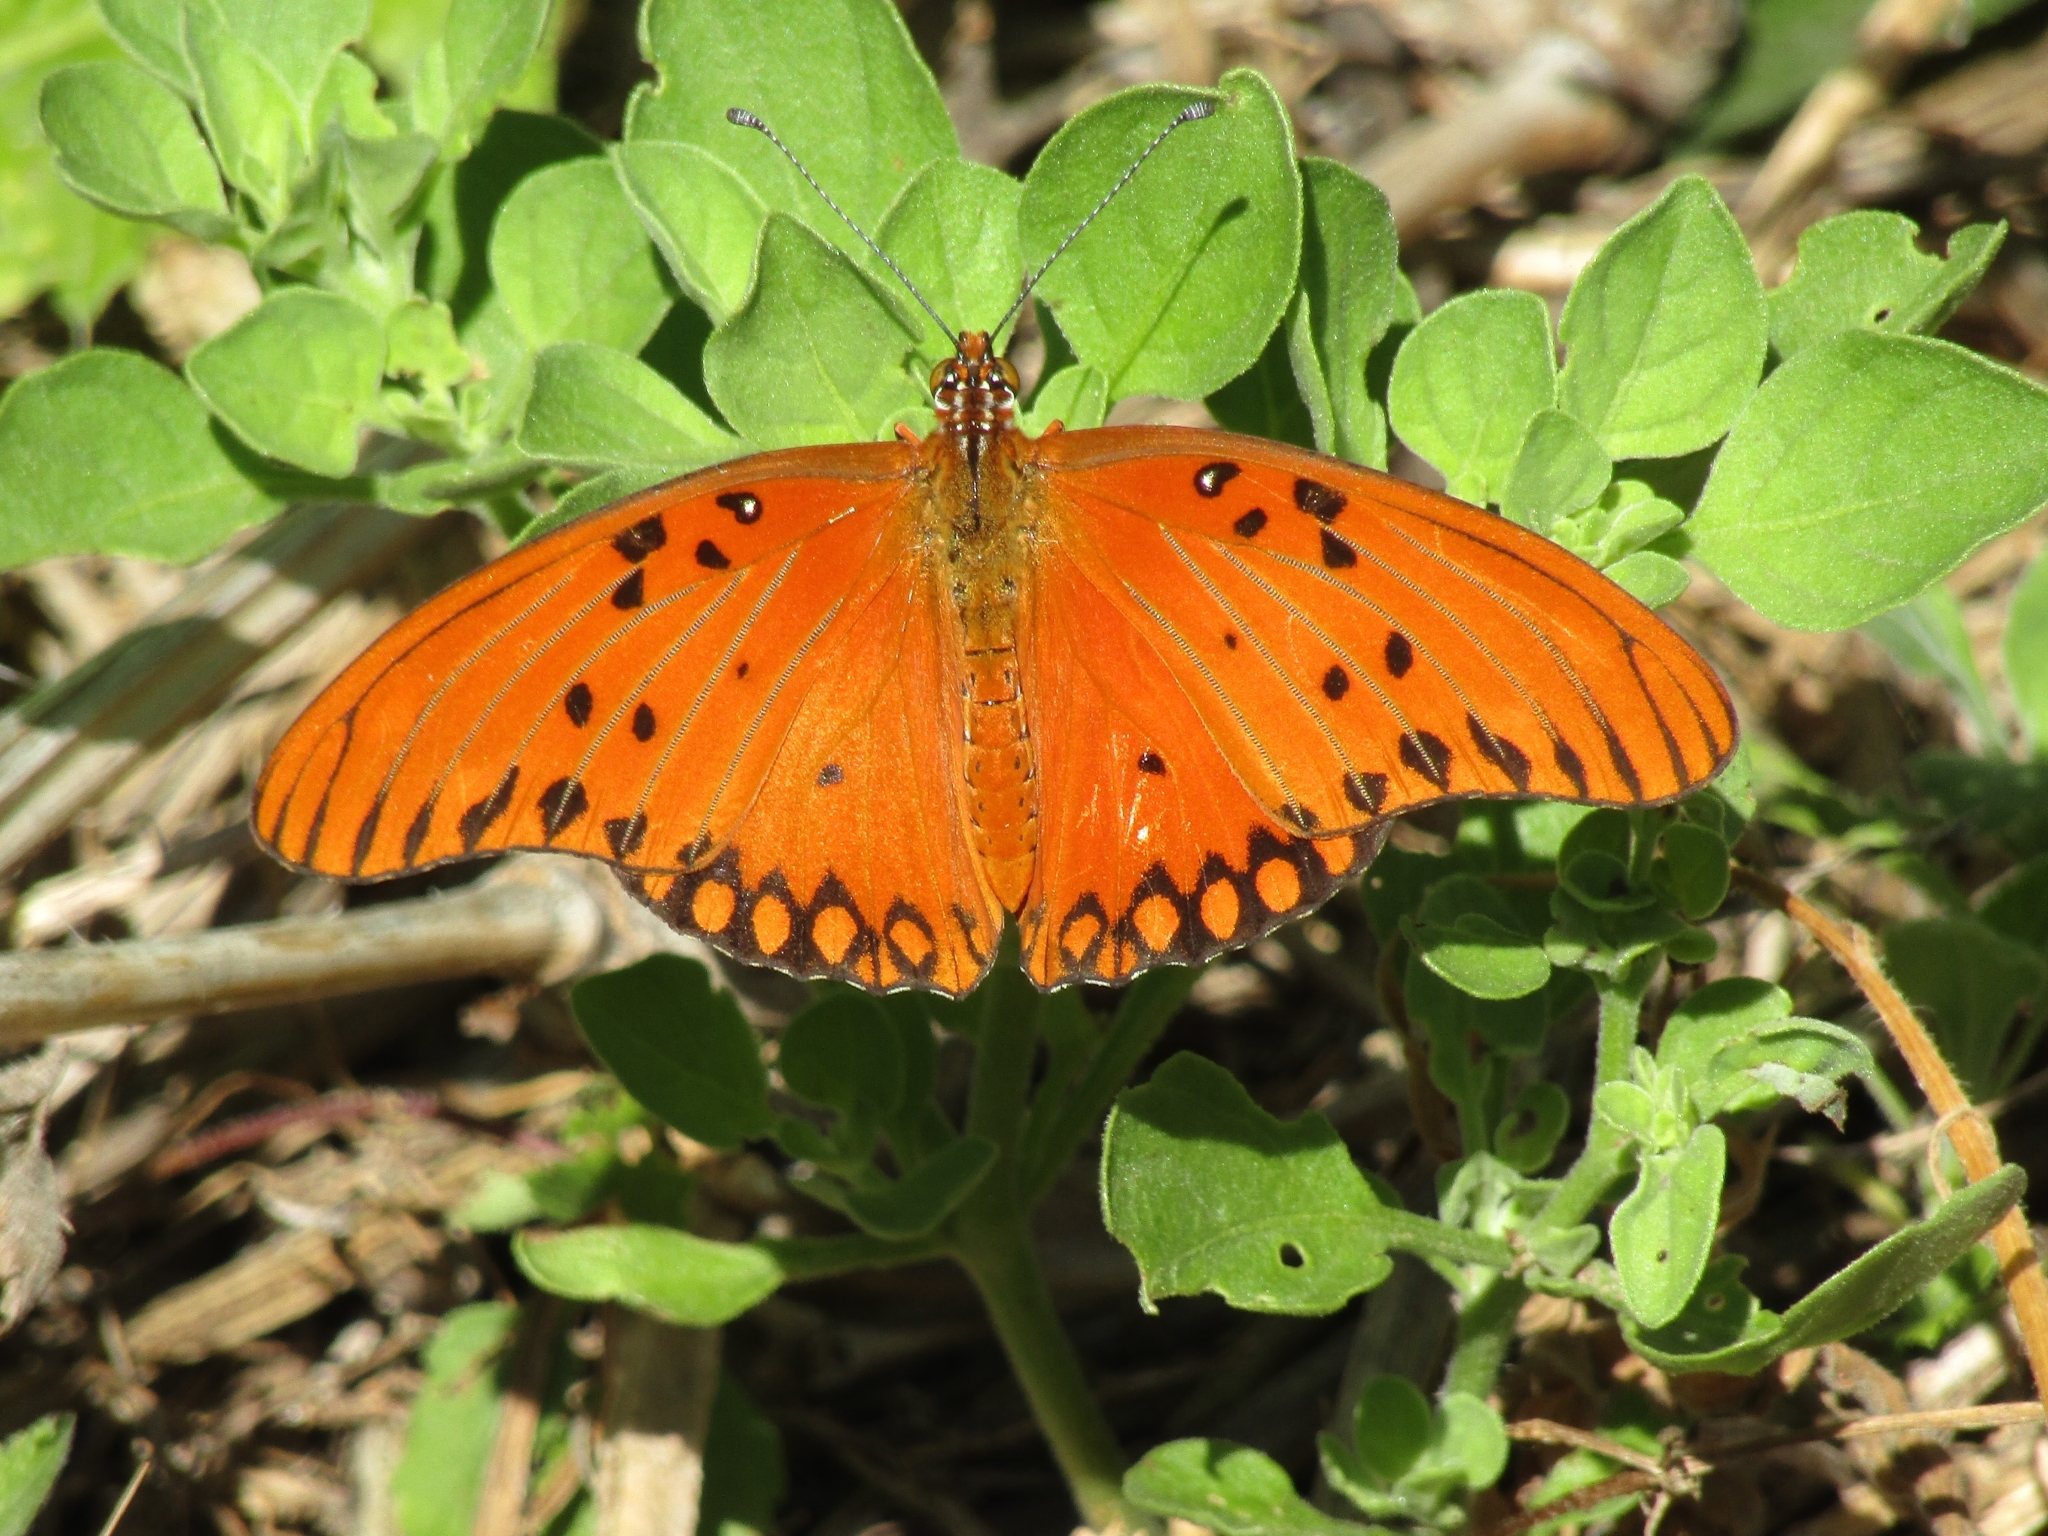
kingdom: Animalia
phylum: Arthropoda
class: Insecta
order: Lepidoptera
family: Nymphalidae
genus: Dione
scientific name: Dione vanillae
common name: Gulf fritillary
